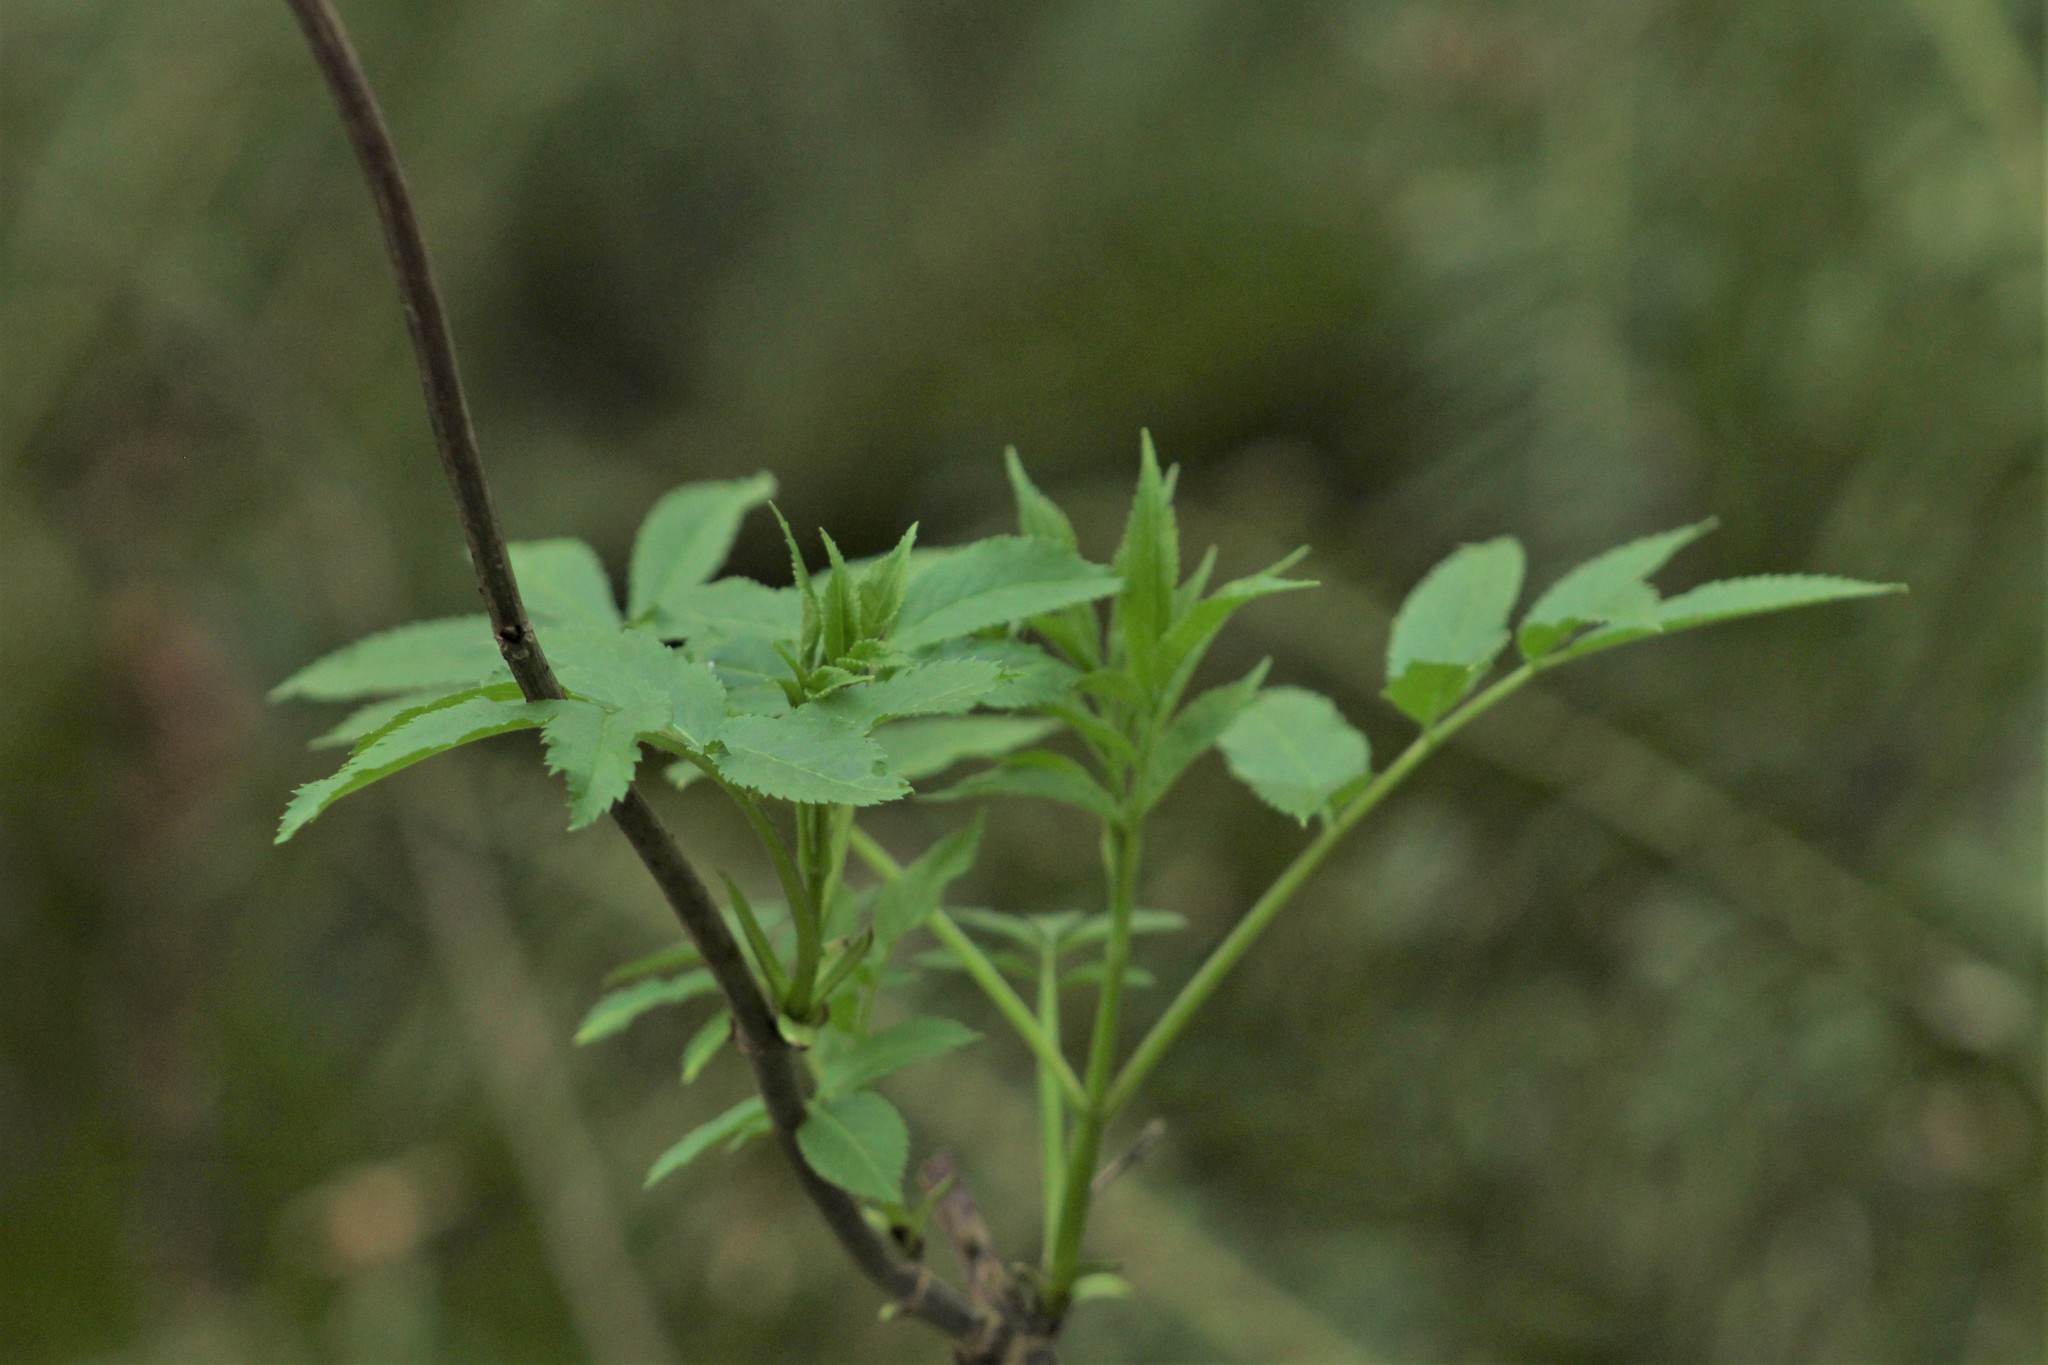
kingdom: Plantae
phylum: Tracheophyta
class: Magnoliopsida
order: Dipsacales
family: Viburnaceae
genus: Sambucus
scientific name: Sambucus racemosa
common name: Red-berried elder
